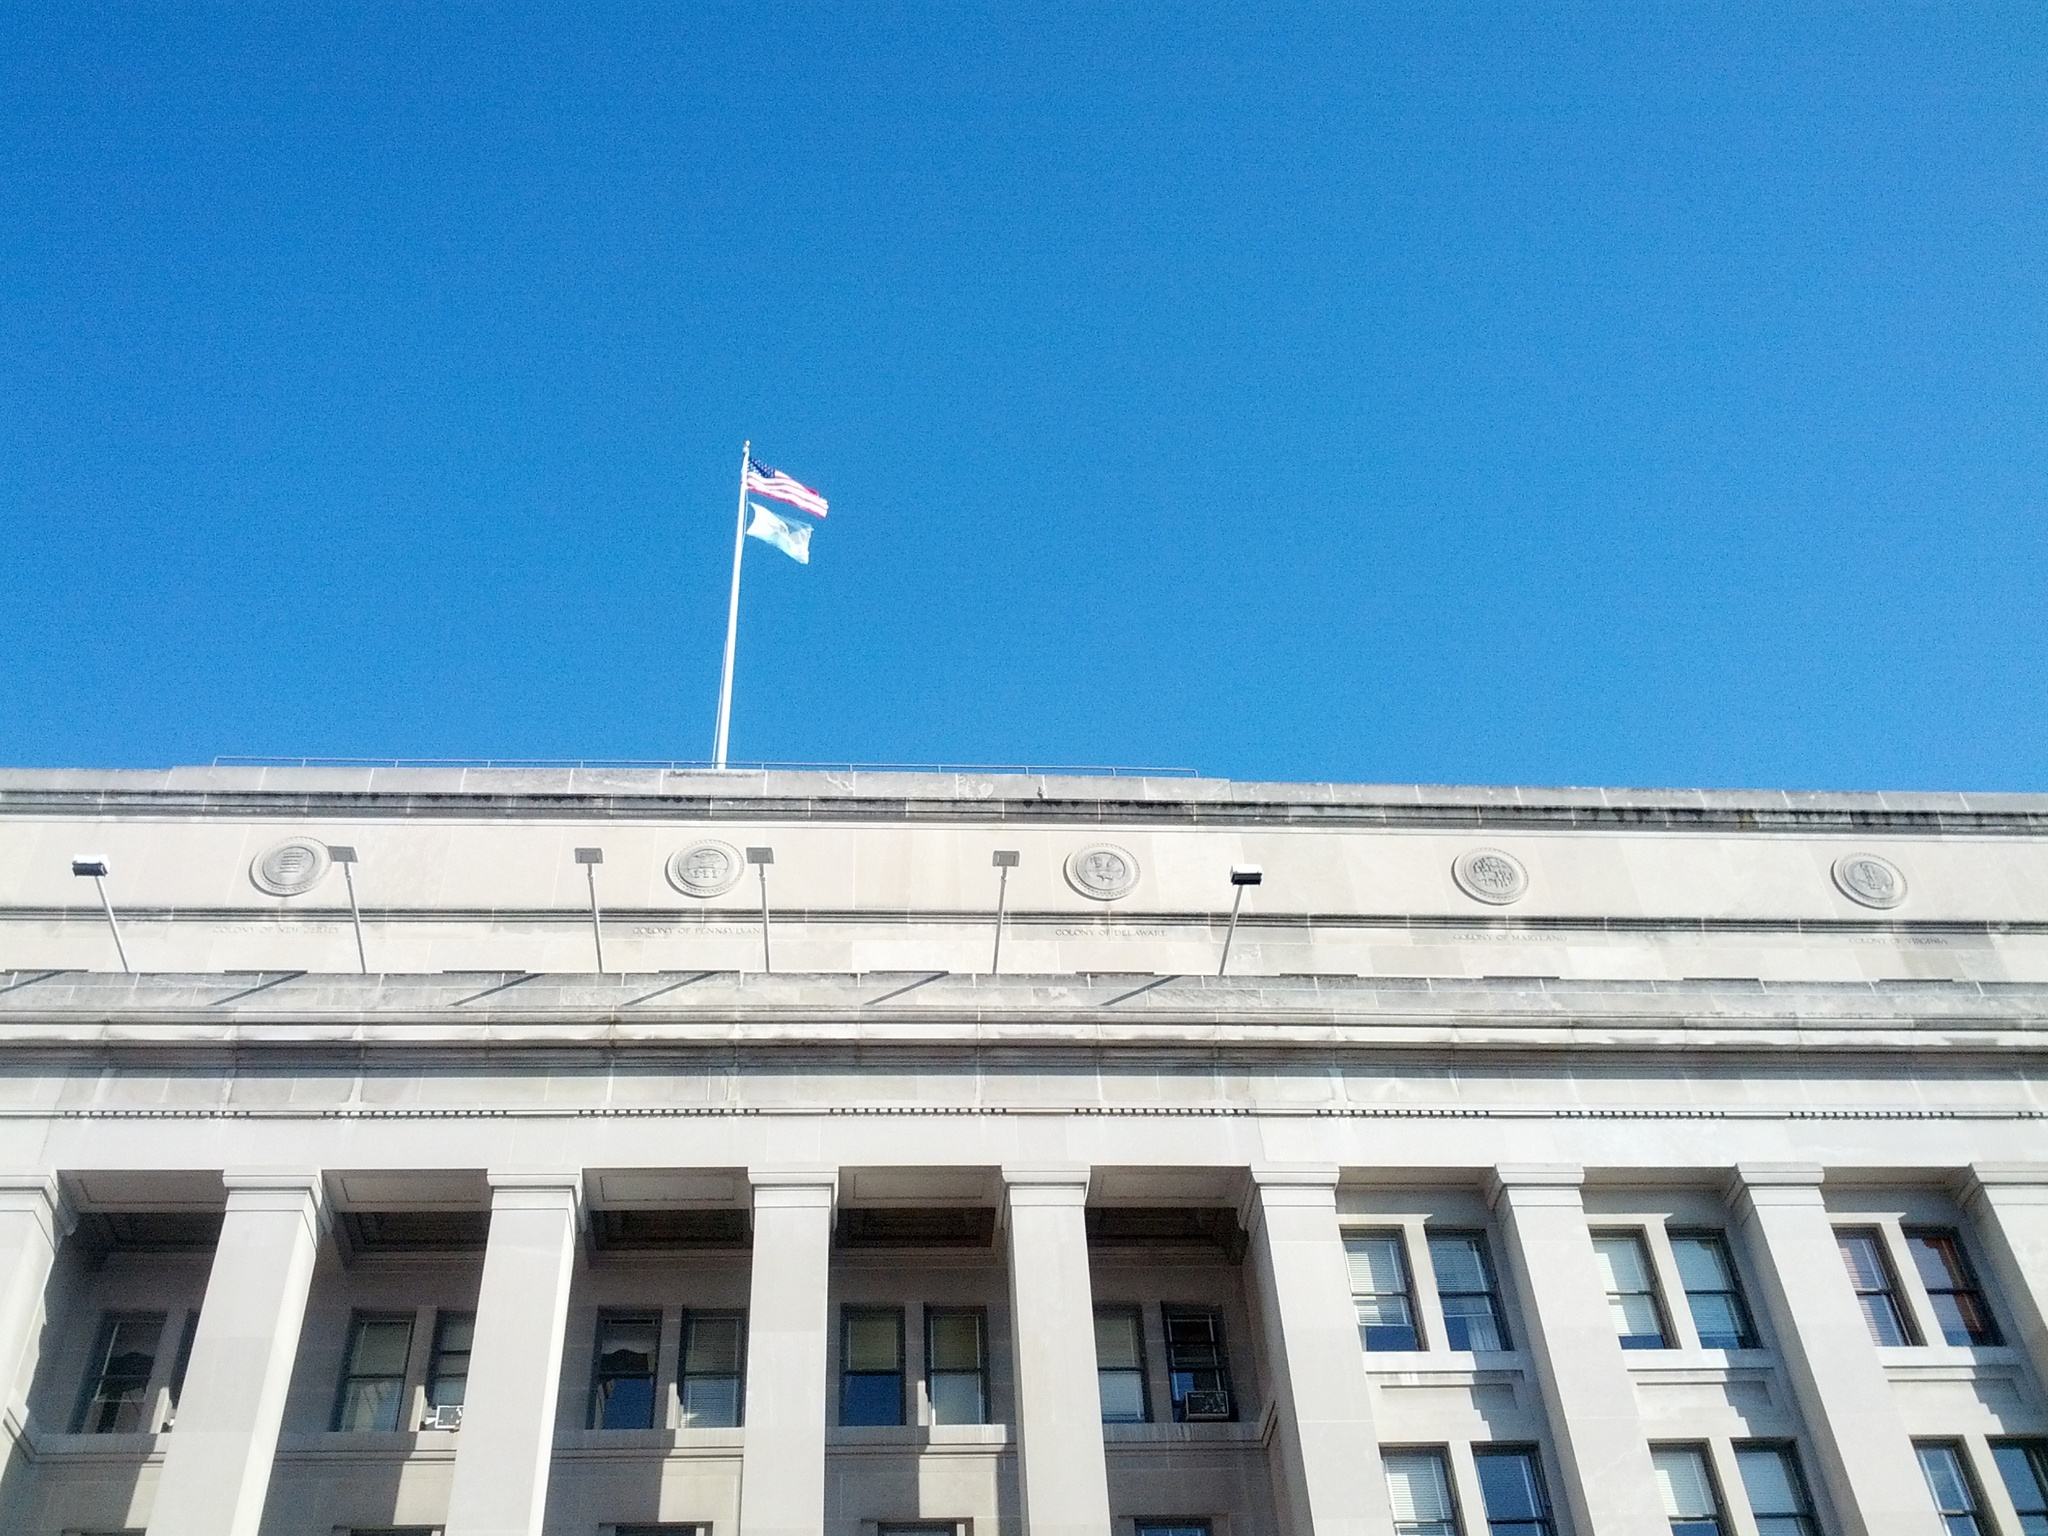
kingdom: Animalia
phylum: Chordata
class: Aves
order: Accipitriformes
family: Accipitridae
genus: Buteo
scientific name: Buteo jamaicensis
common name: Red-tailed hawk
